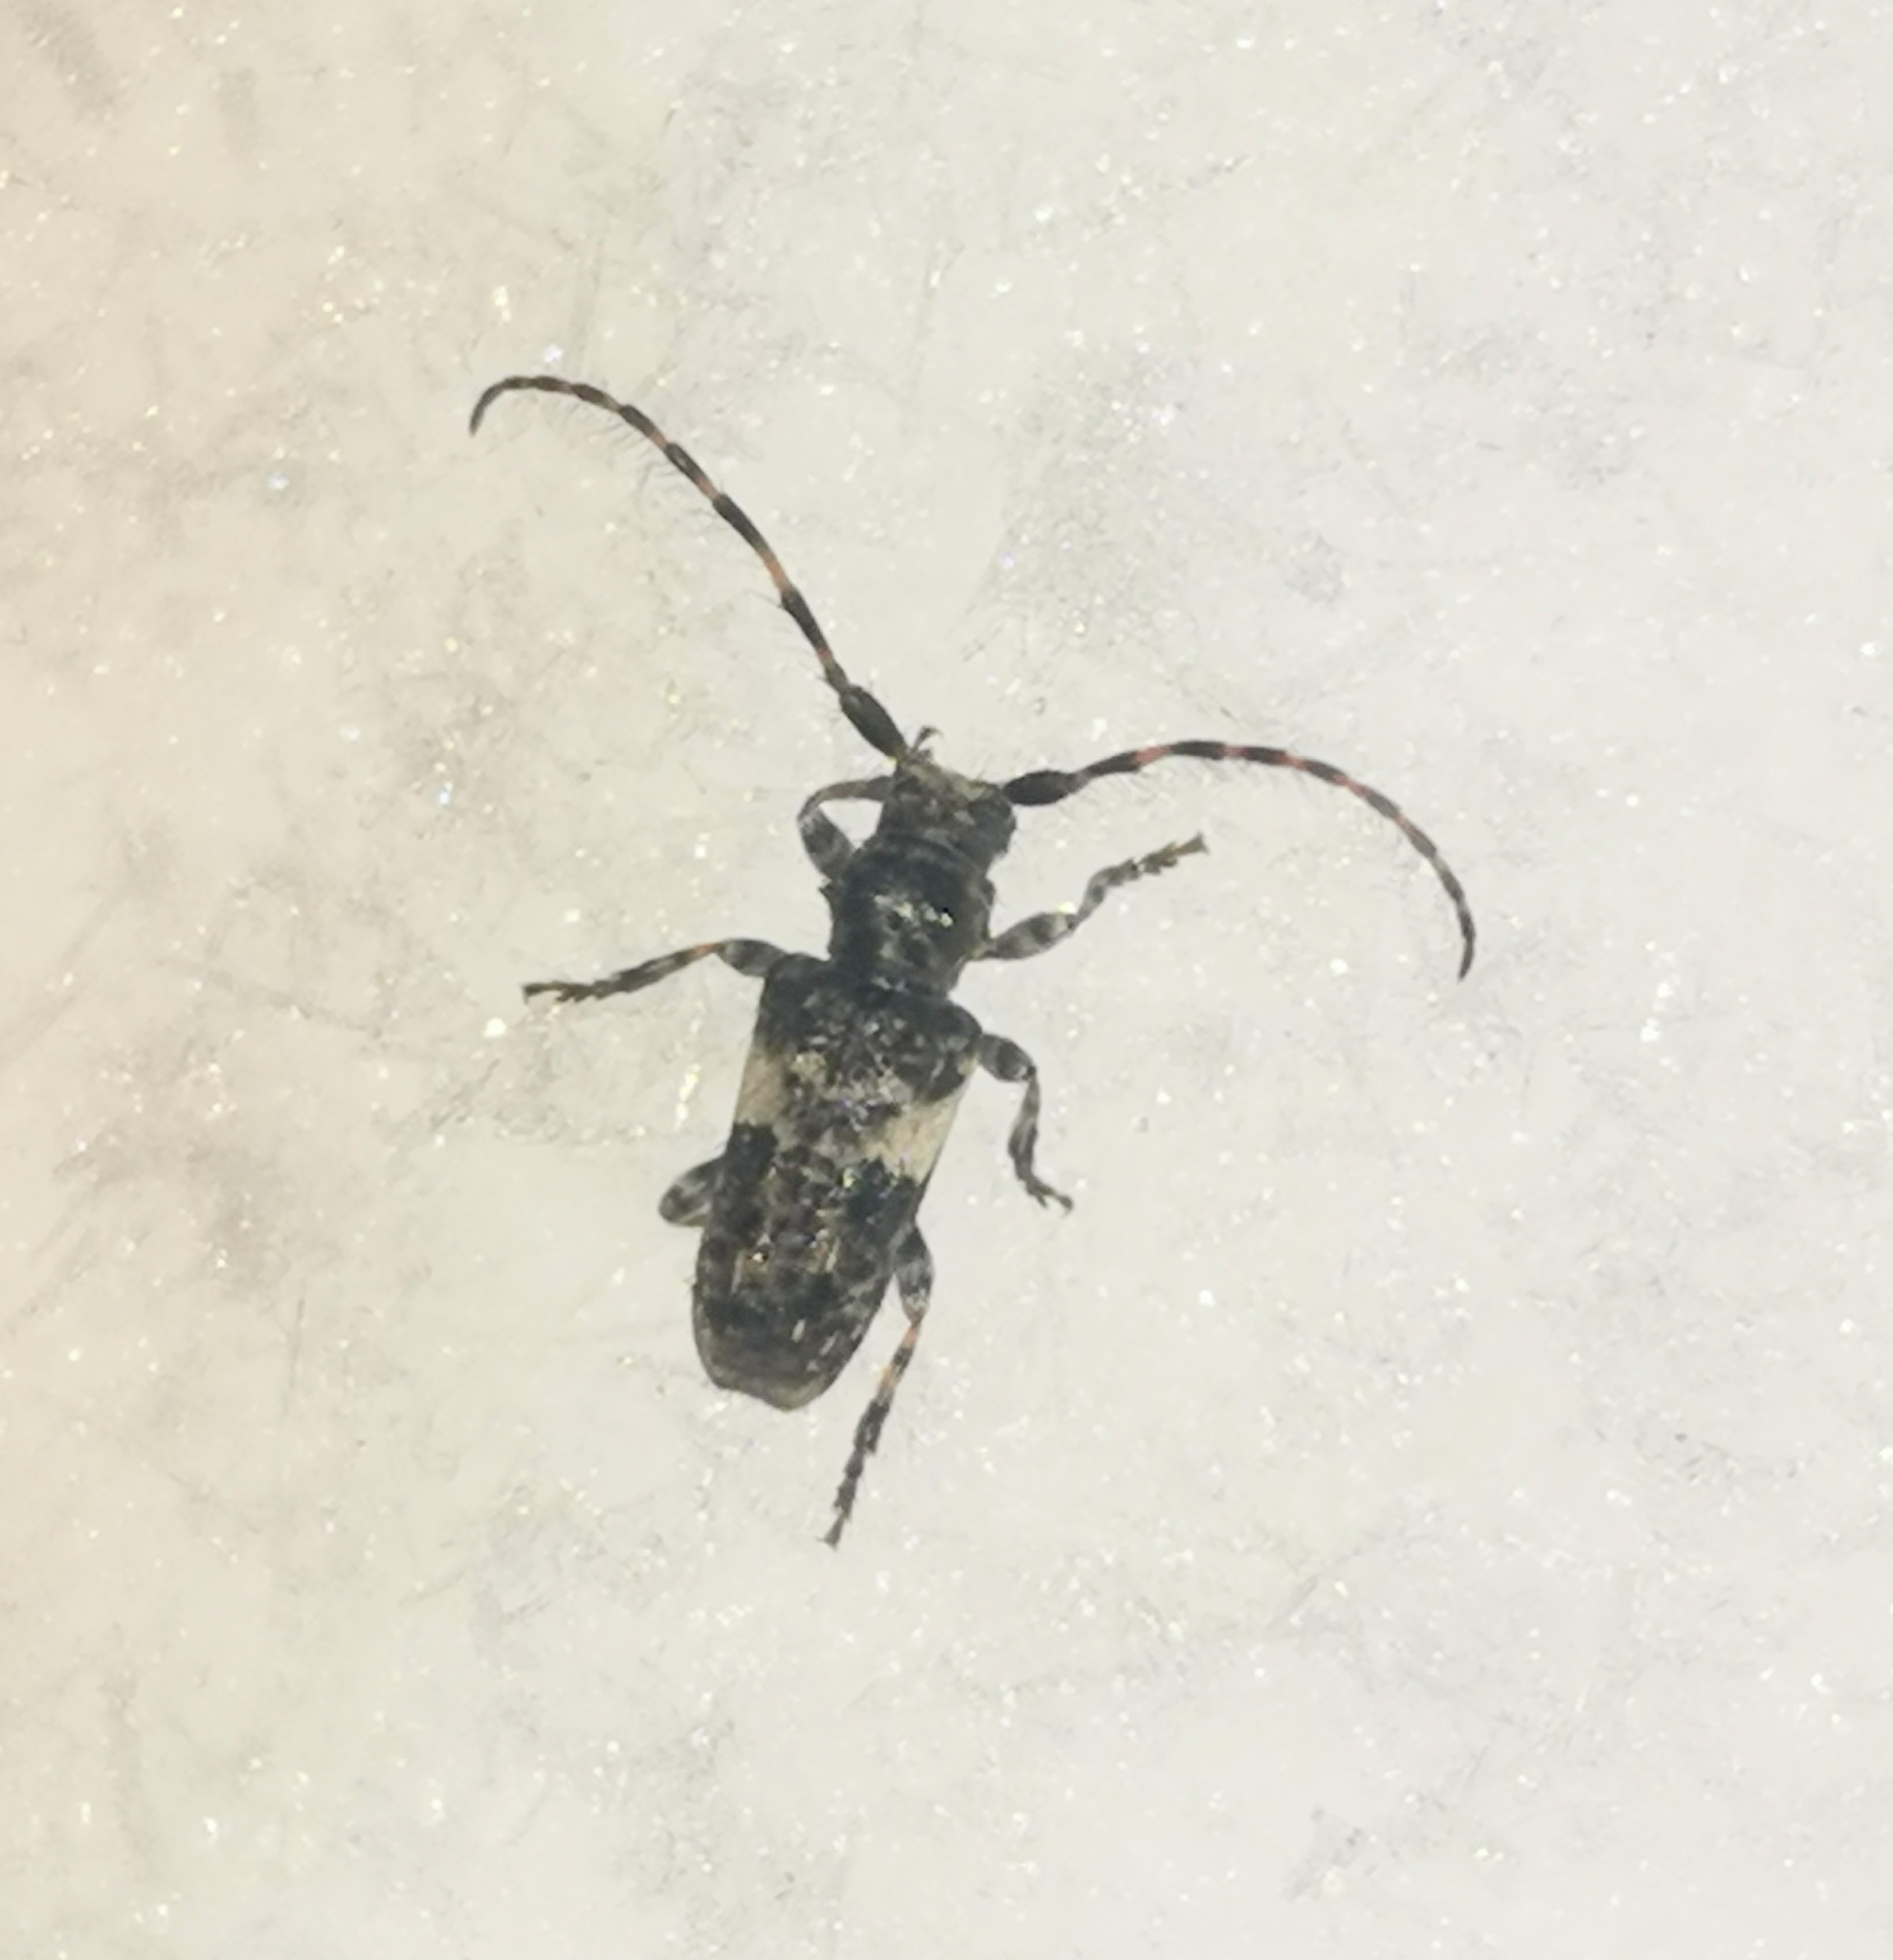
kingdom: Animalia
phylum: Arthropoda
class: Insecta
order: Coleoptera
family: Cerambycidae
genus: Pogonocherus
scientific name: Pogonocherus fasciculatus
